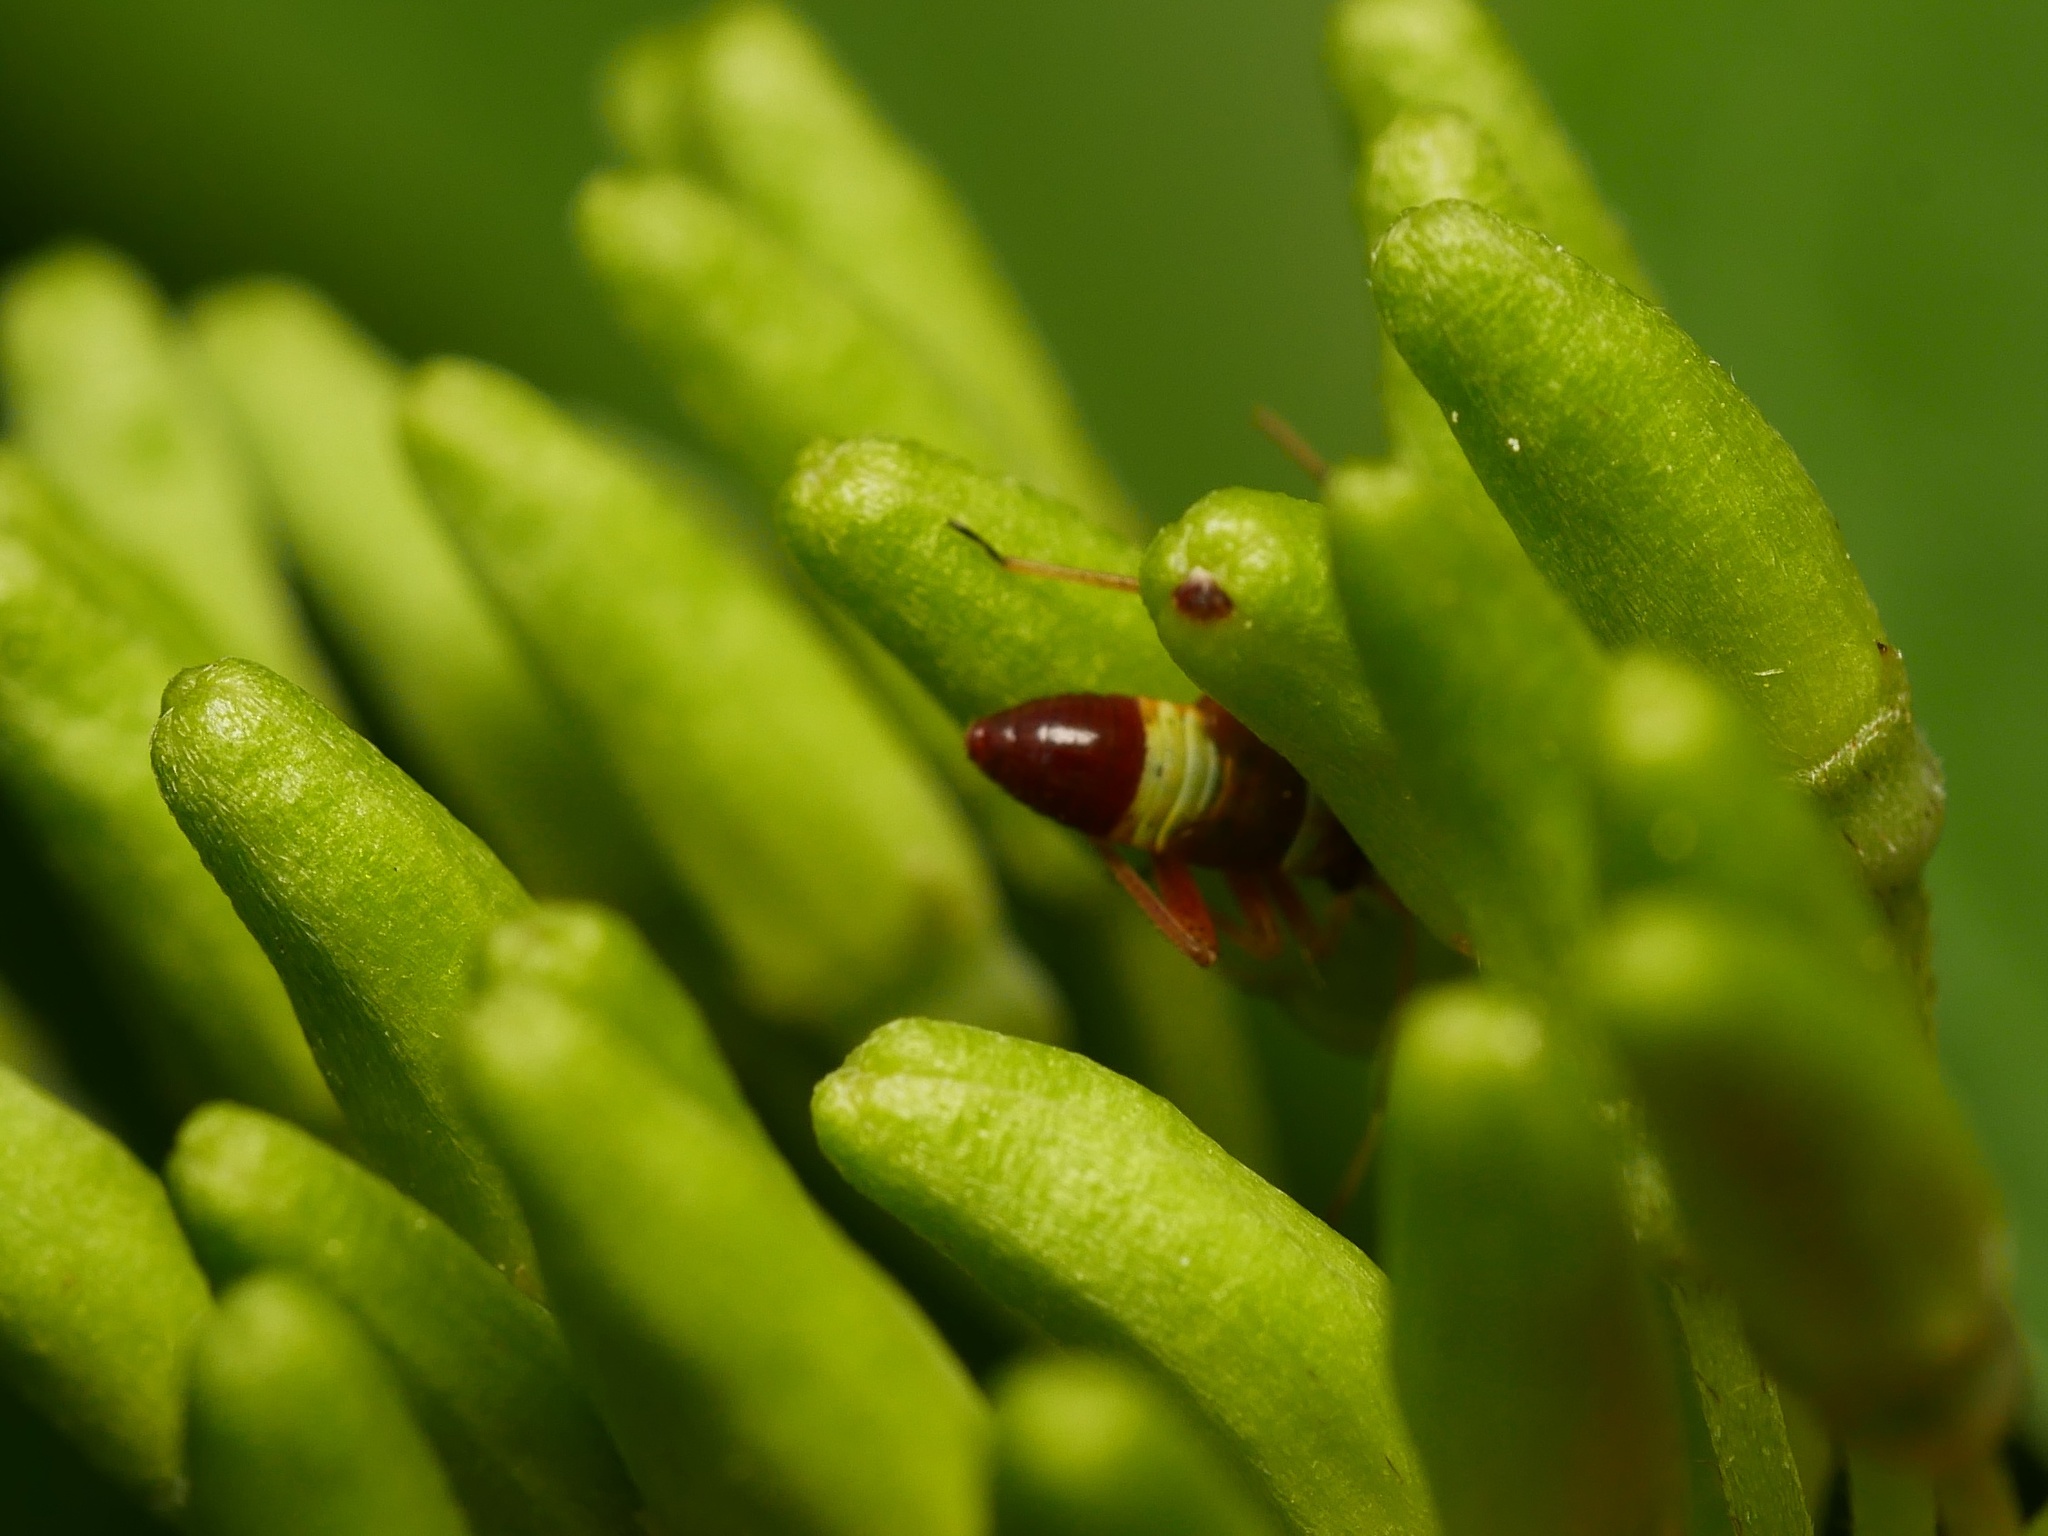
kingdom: Animalia
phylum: Arthropoda
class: Insecta
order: Hemiptera
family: Miridae
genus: Closterotomus
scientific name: Closterotomus biclavatus
